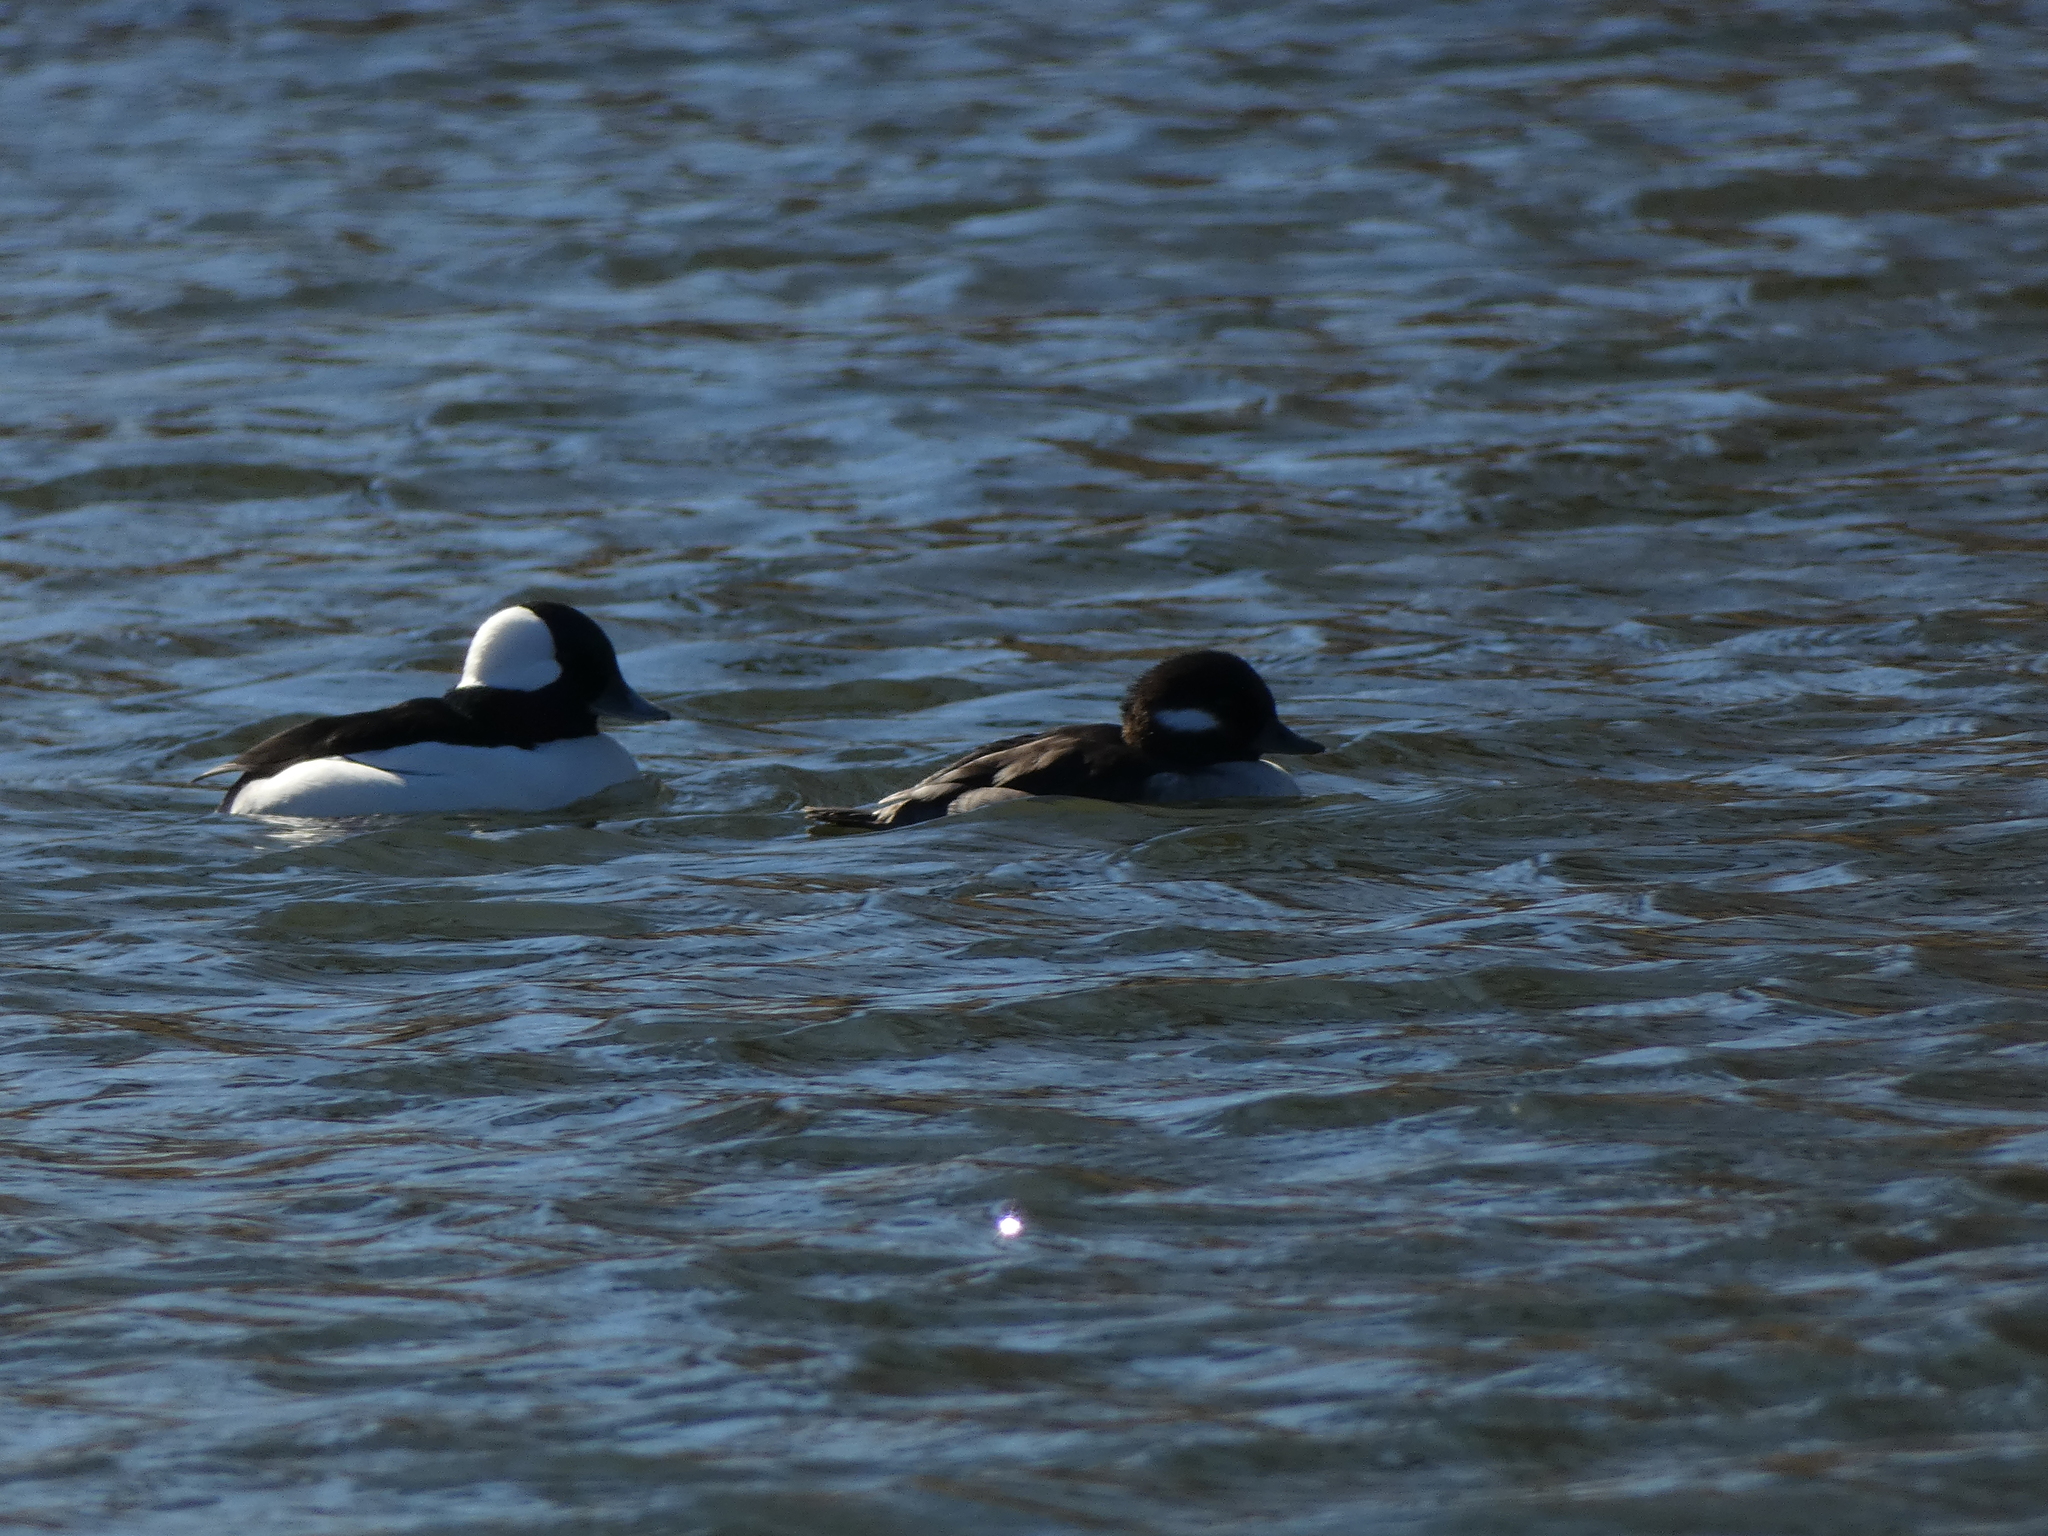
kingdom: Animalia
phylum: Chordata
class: Aves
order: Anseriformes
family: Anatidae
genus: Bucephala
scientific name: Bucephala albeola
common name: Bufflehead
